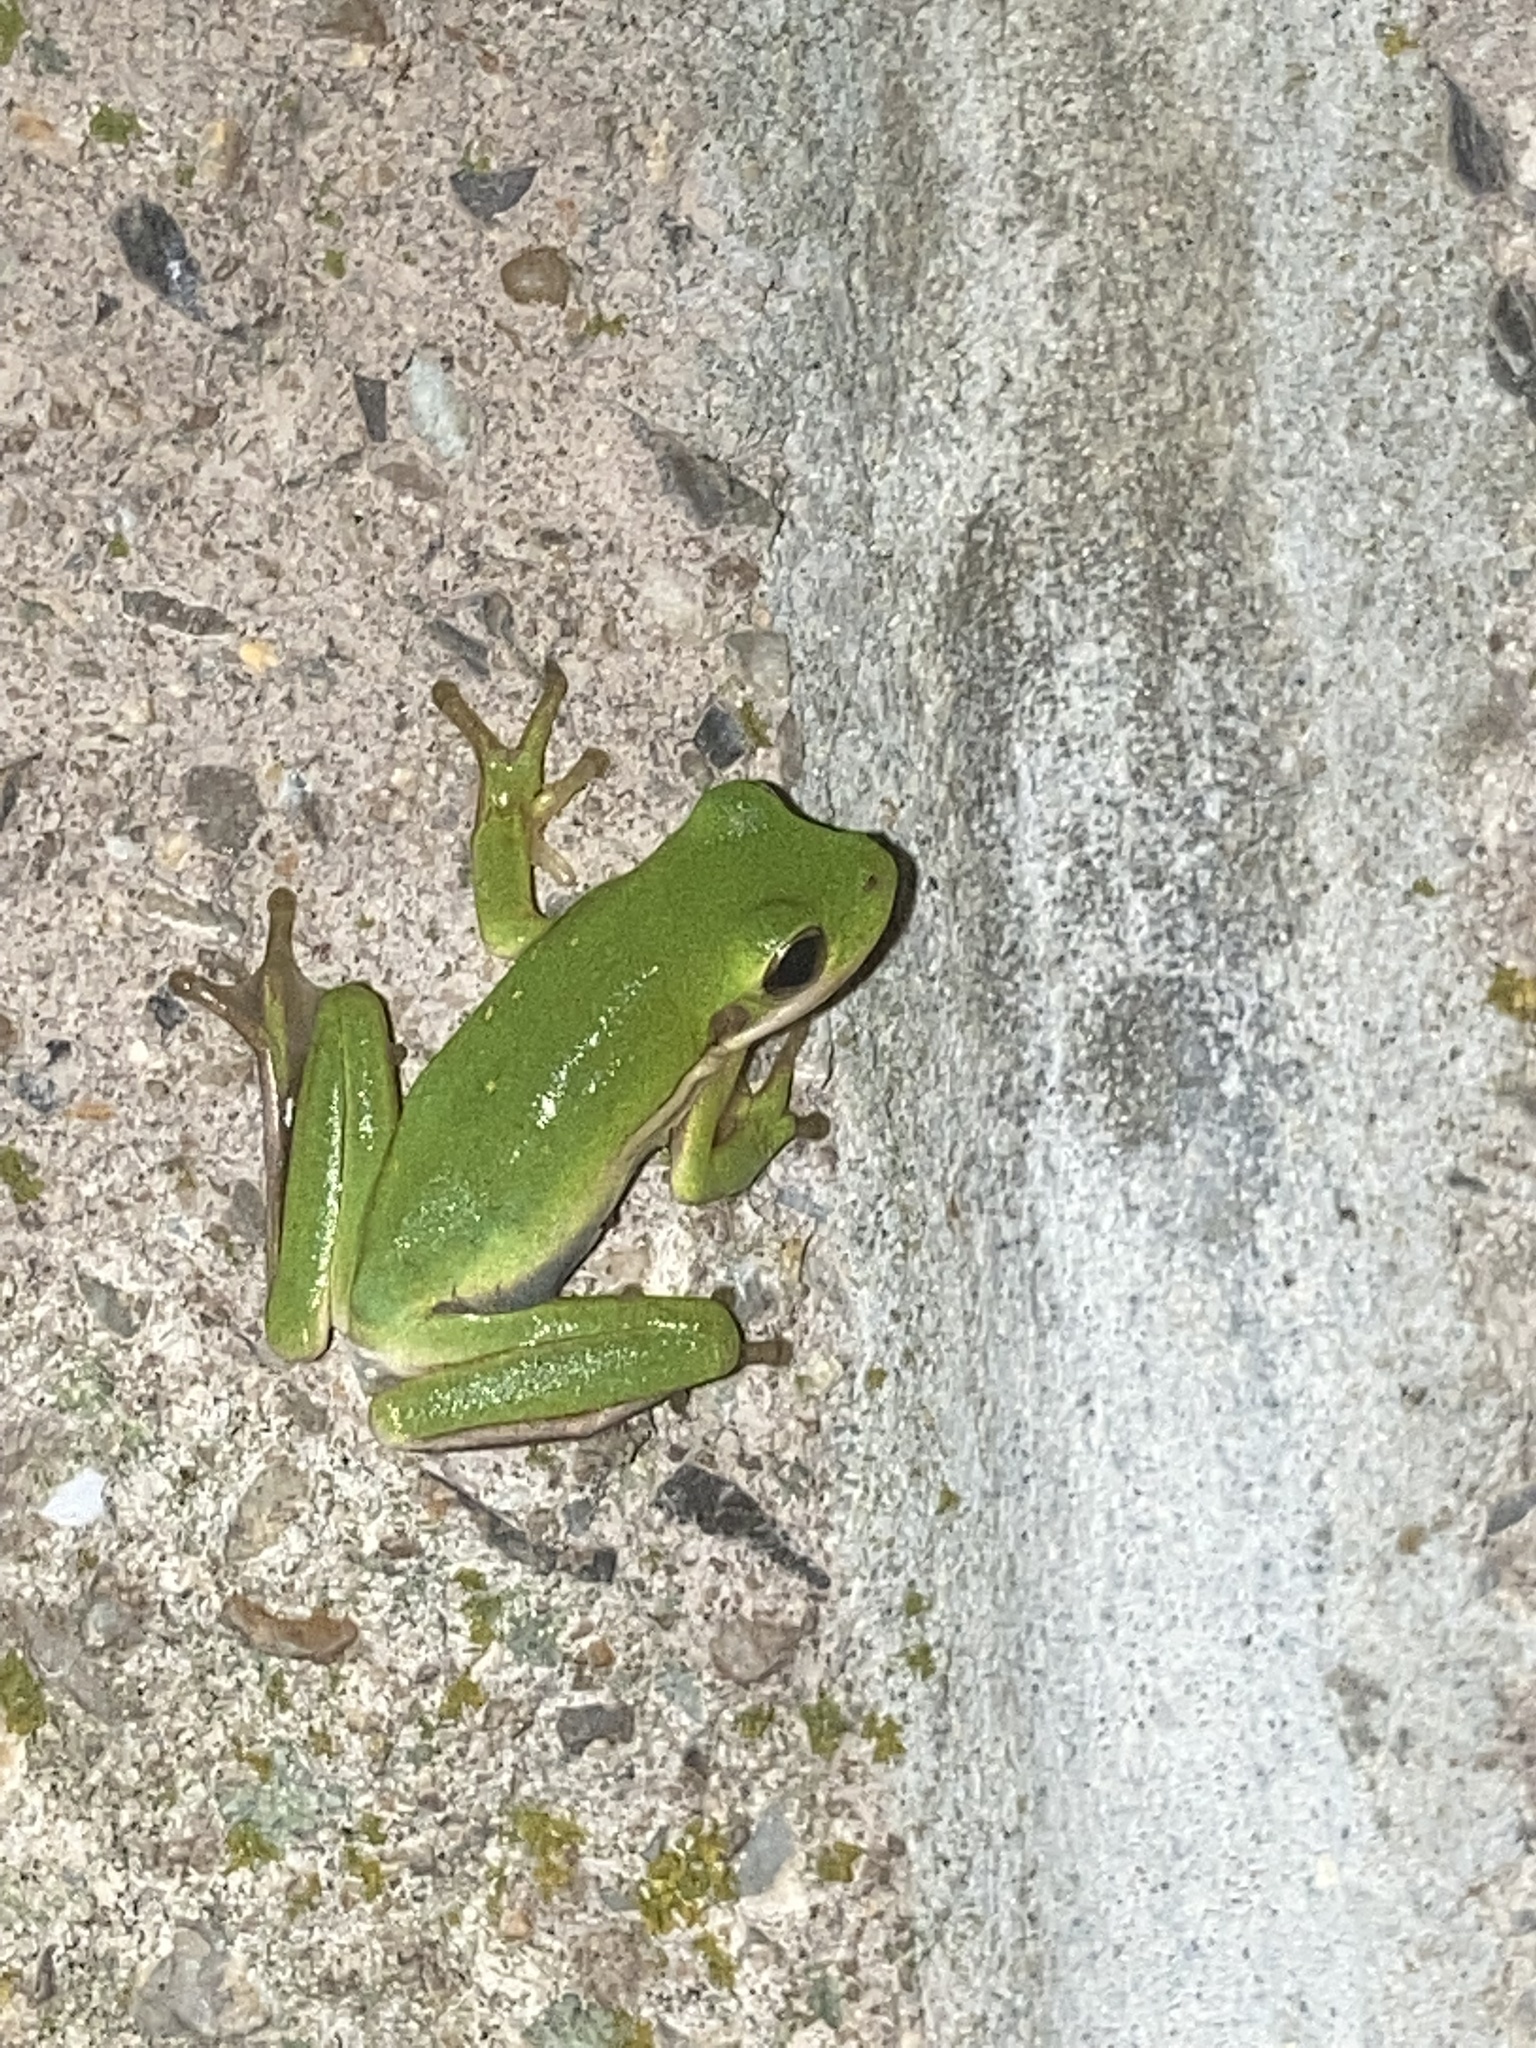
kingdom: Animalia
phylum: Chordata
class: Amphibia
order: Anura
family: Hylidae
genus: Dryophytes
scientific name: Dryophytes cinereus
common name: Green treefrog
